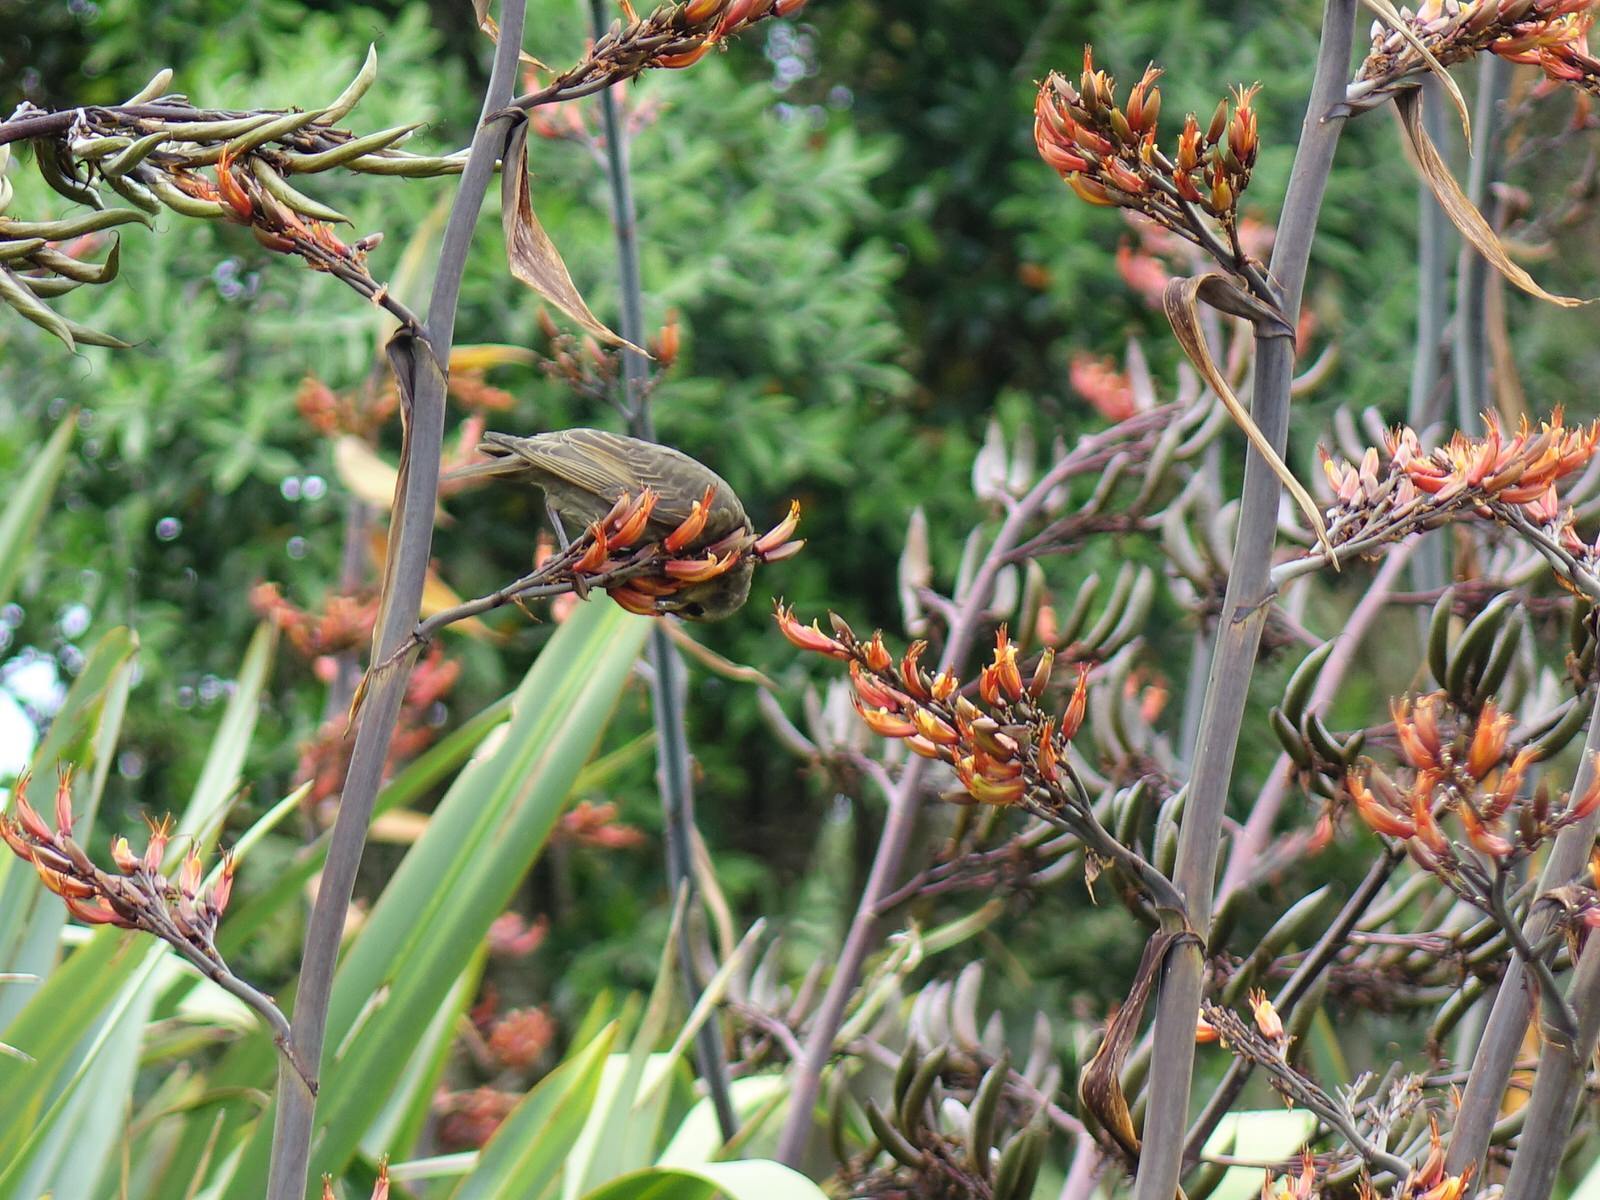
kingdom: Animalia
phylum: Chordata
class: Aves
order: Passeriformes
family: Sturnidae
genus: Sturnus
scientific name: Sturnus vulgaris
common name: Common starling
